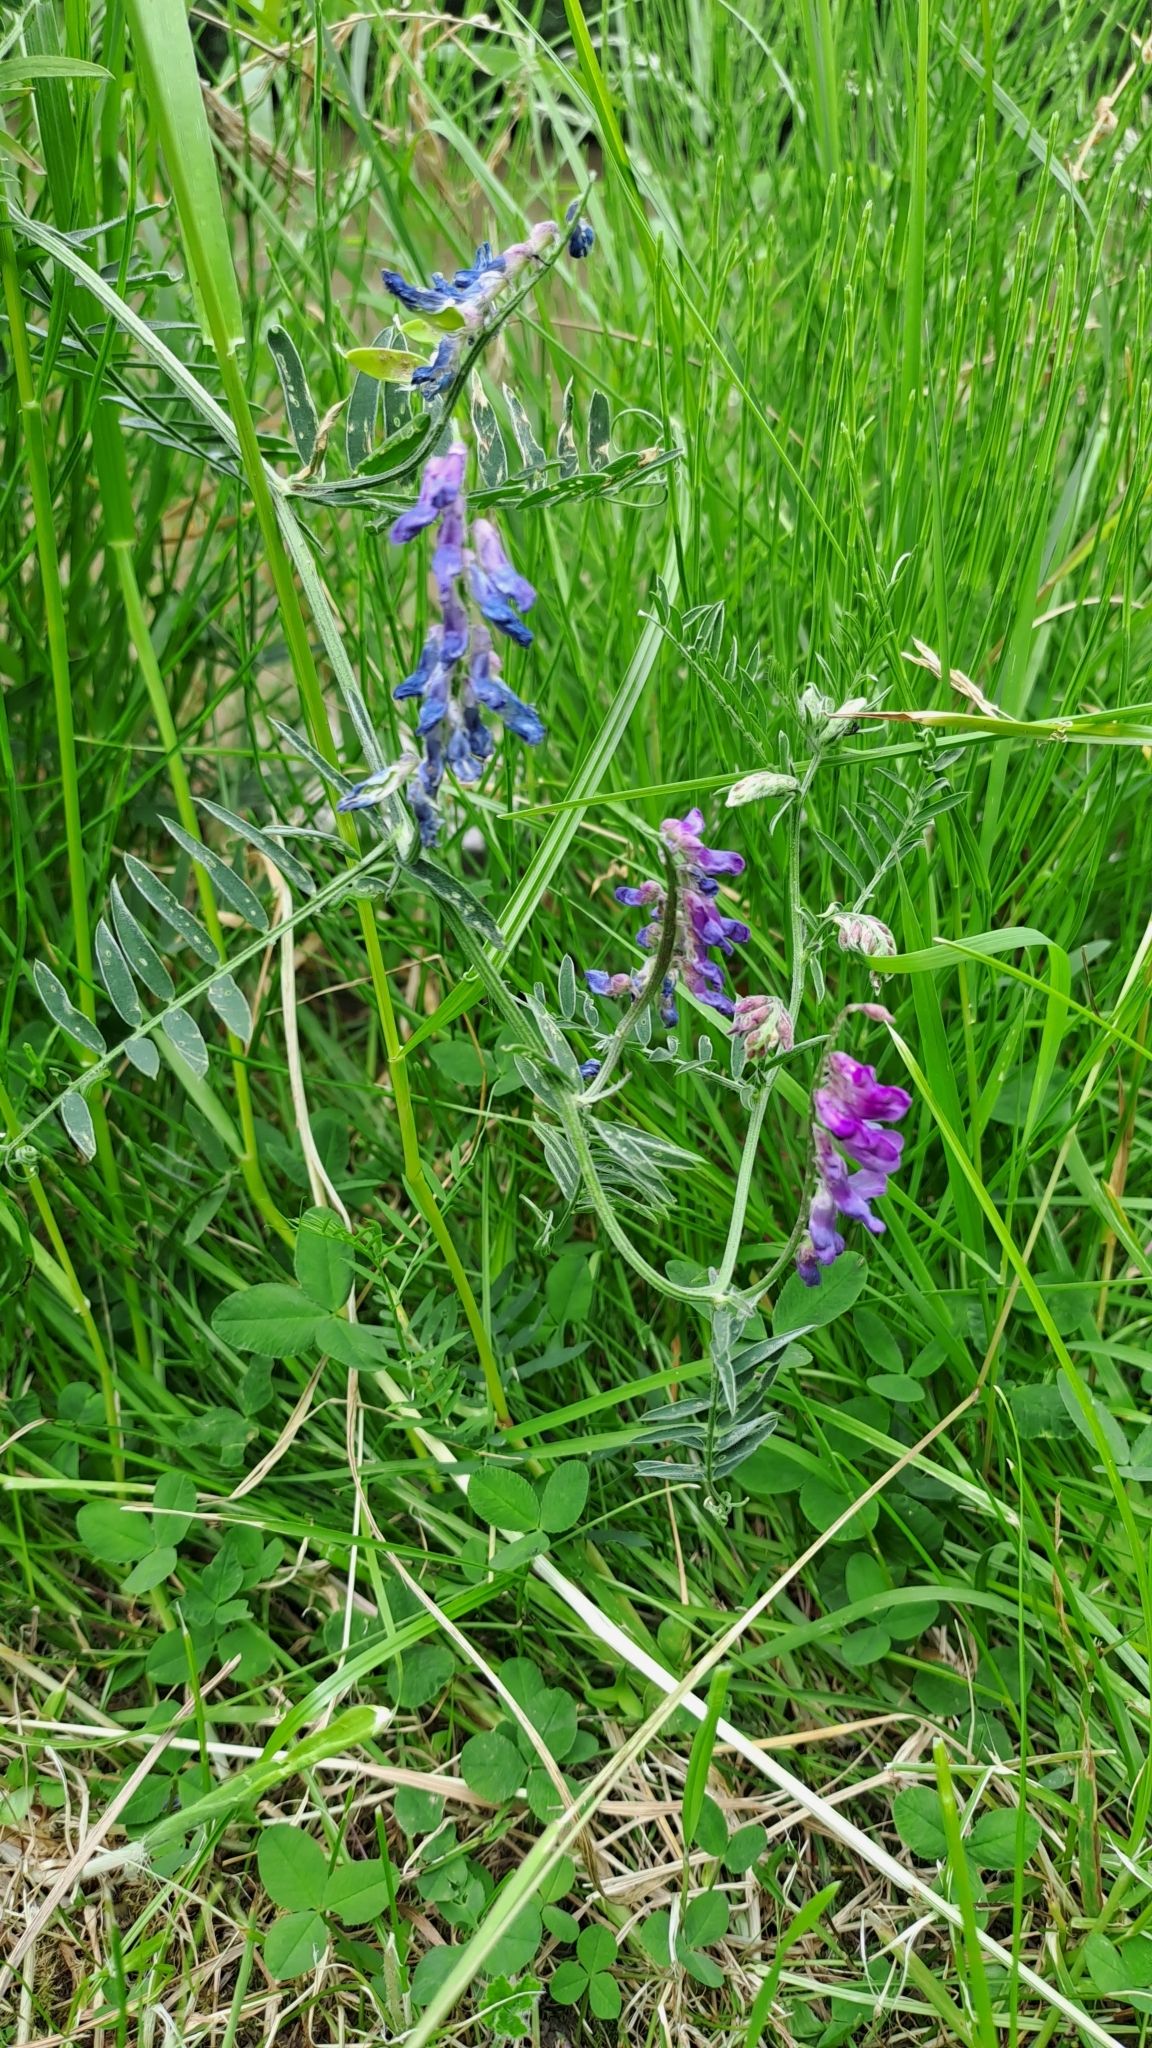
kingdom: Plantae
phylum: Tracheophyta
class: Magnoliopsida
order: Fabales
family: Fabaceae
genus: Vicia
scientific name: Vicia cracca
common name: Bird vetch
